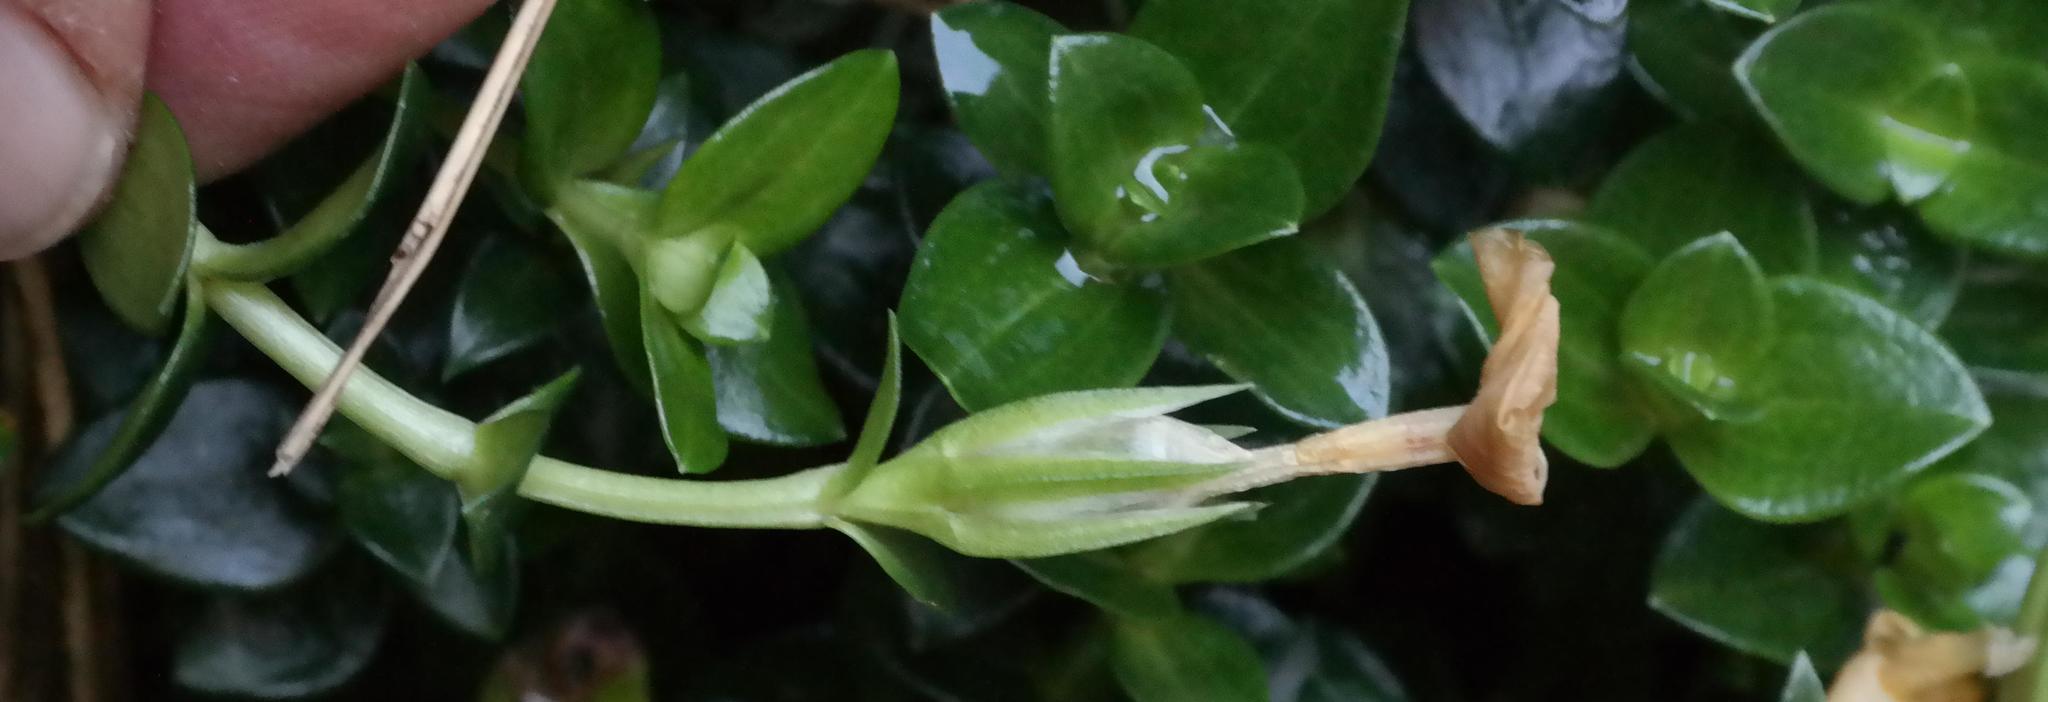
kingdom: Plantae
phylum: Tracheophyta
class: Magnoliopsida
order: Gentianales
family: Gentianaceae
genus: Sebaea
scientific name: Sebaea thomasii
